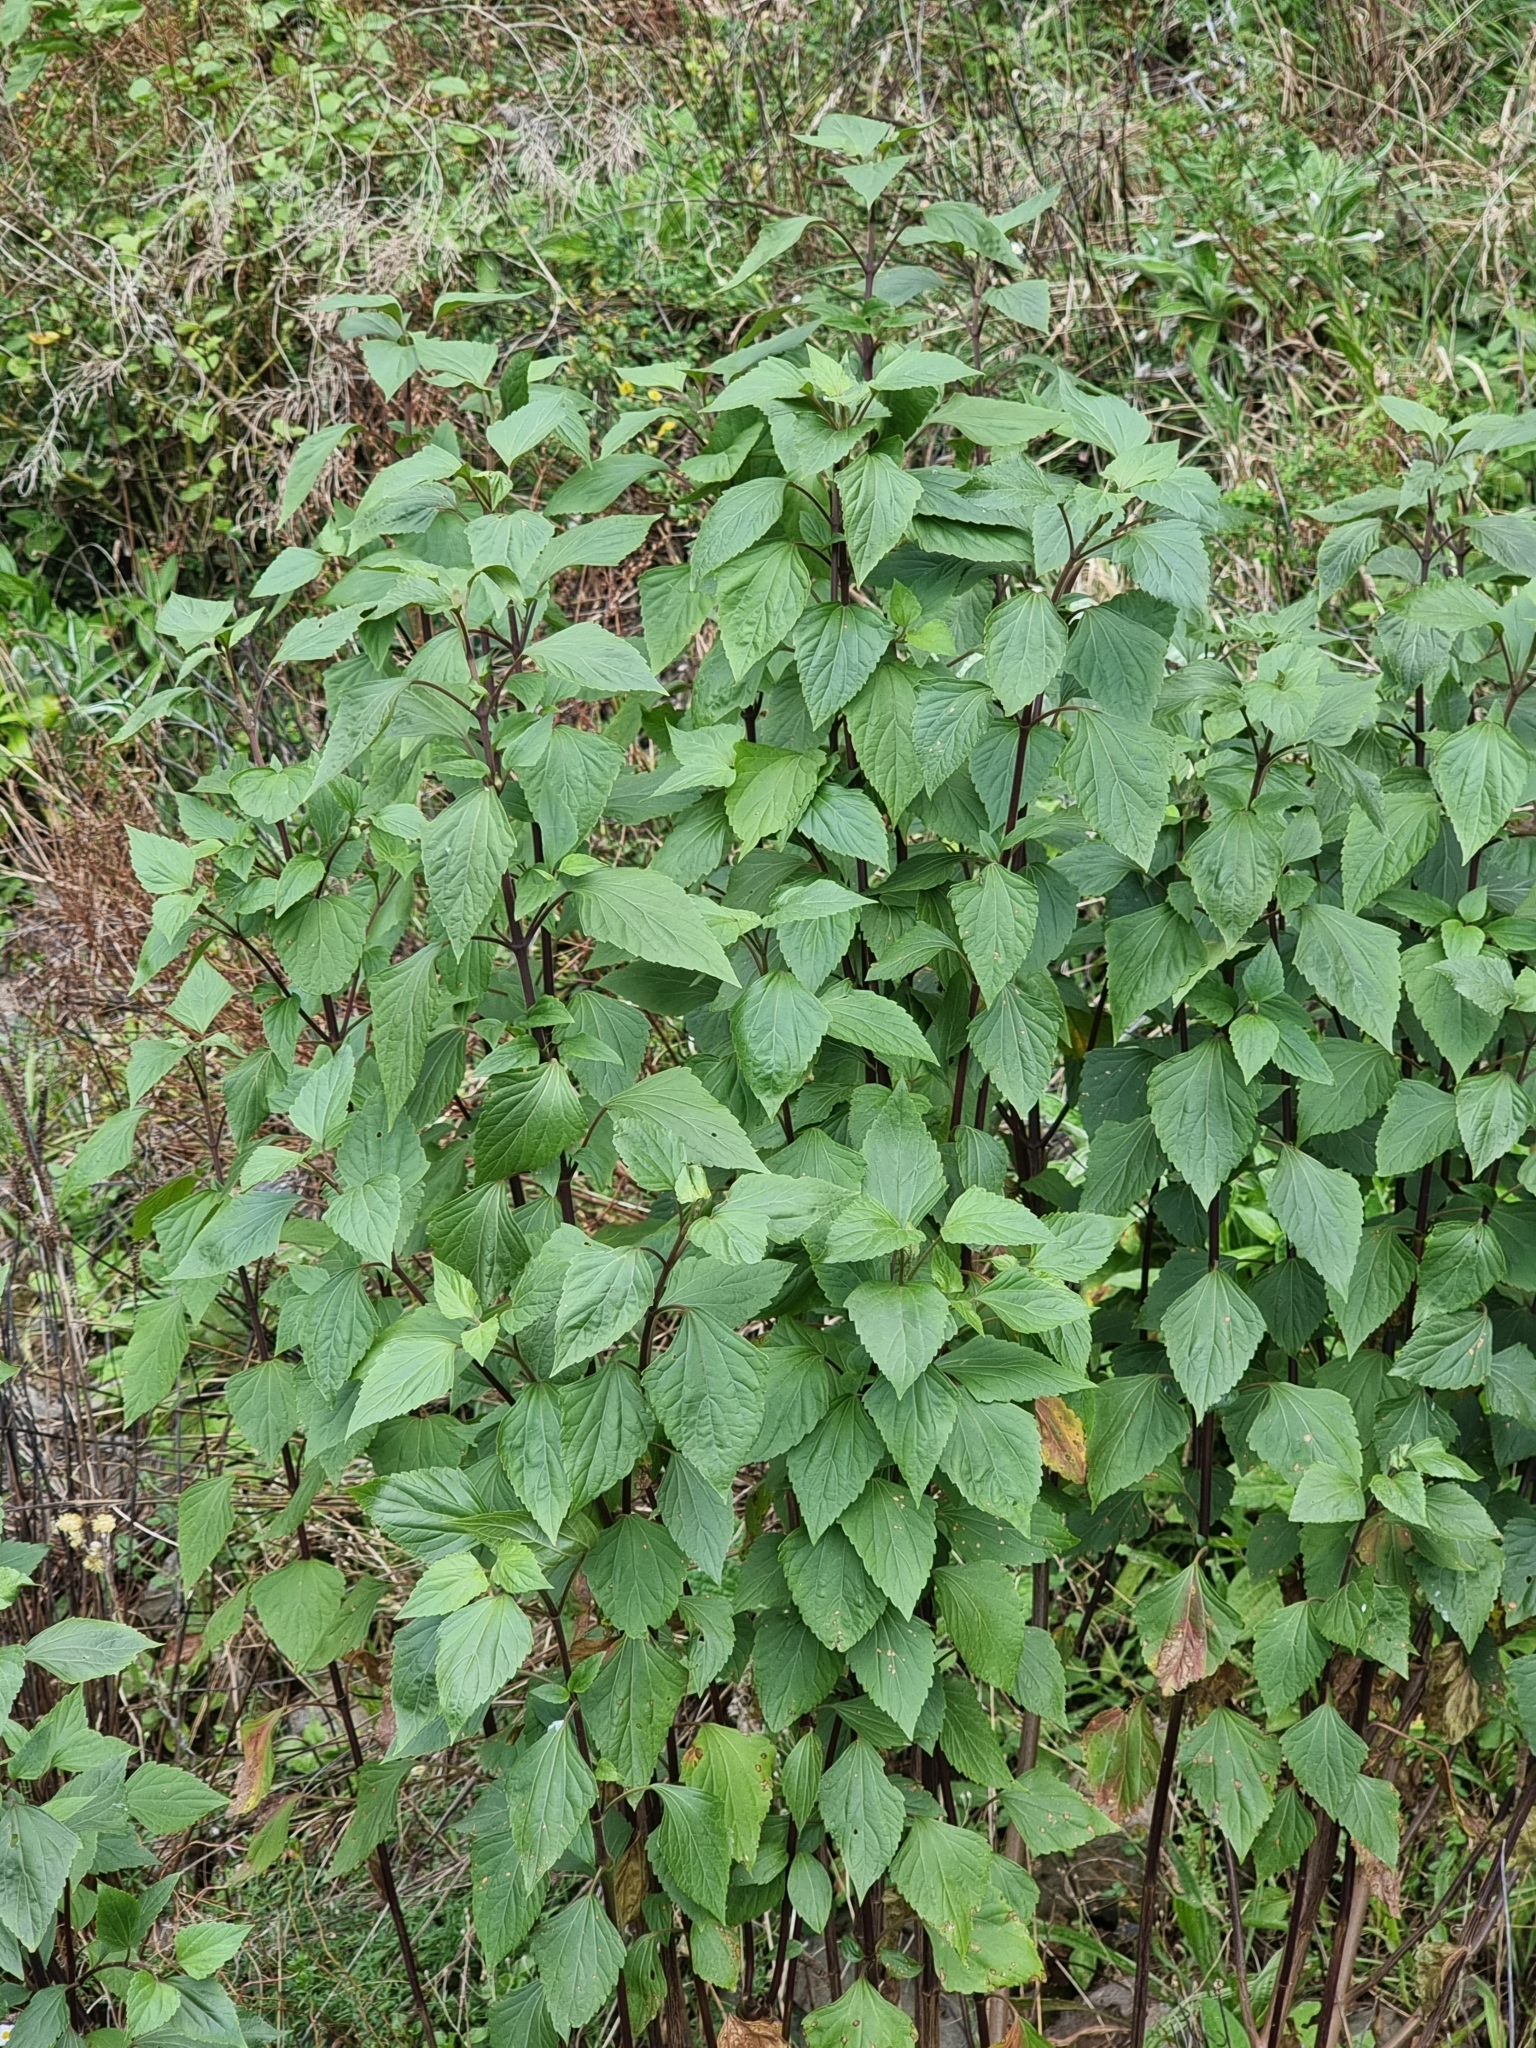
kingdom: Plantae
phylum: Tracheophyta
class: Magnoliopsida
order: Asterales
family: Asteraceae
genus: Ageratina
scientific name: Ageratina adenophora
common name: Sticky snakeroot
